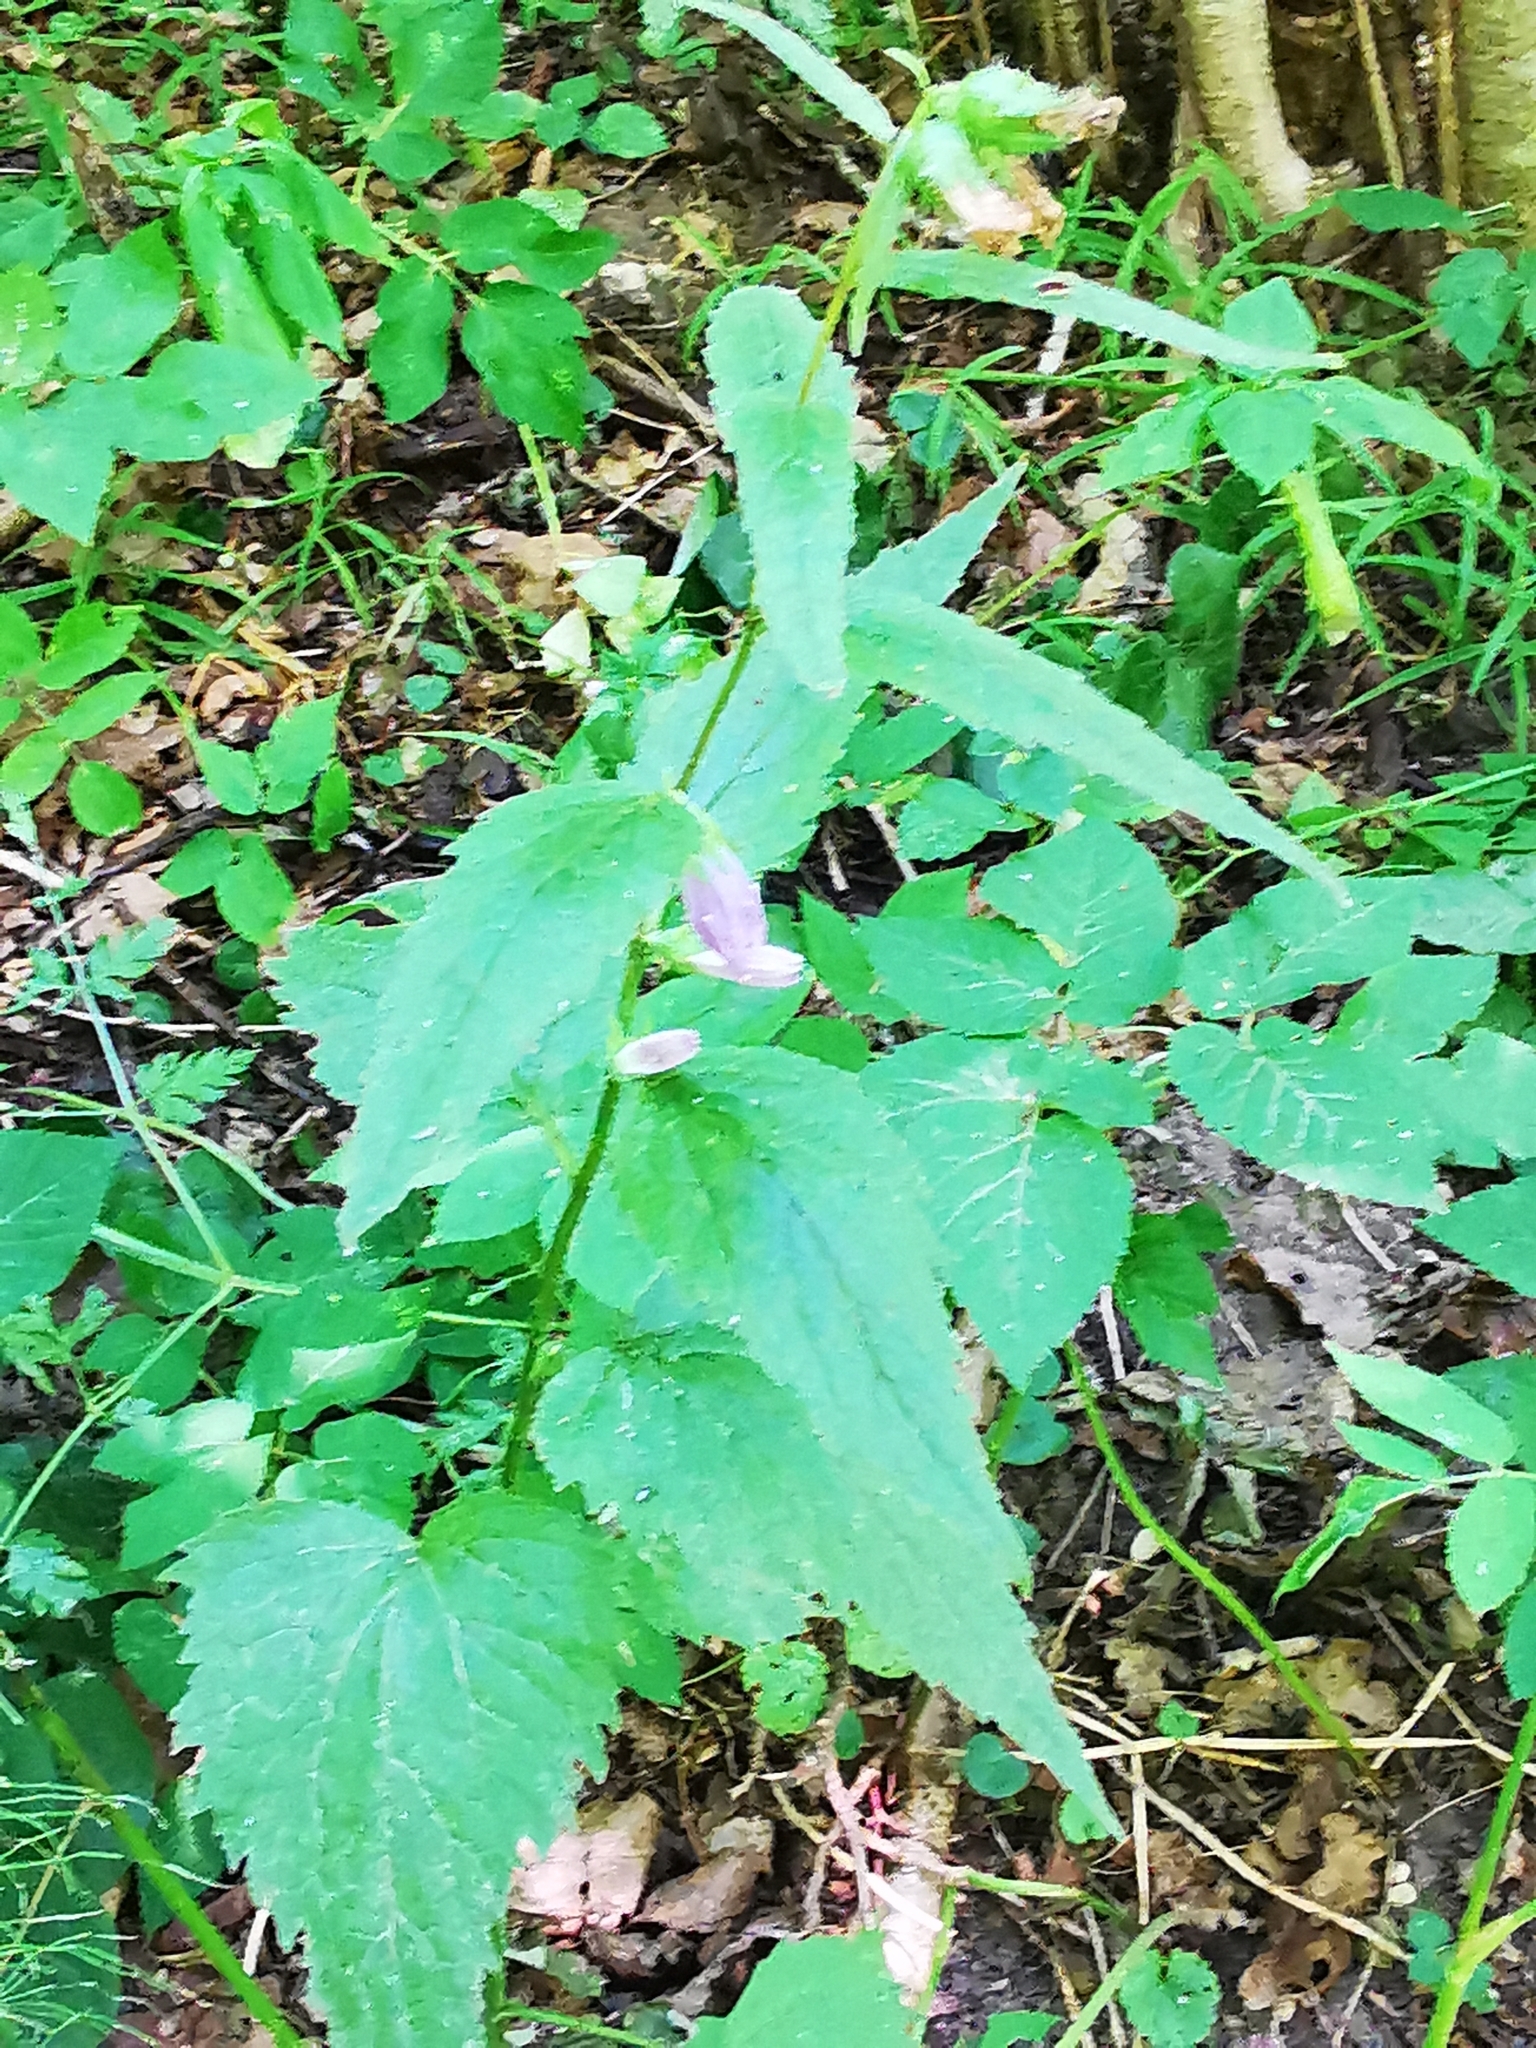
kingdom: Plantae
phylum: Tracheophyta
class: Magnoliopsida
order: Asterales
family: Campanulaceae
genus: Campanula
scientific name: Campanula trachelium
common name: Nettle-leaved bellflower
